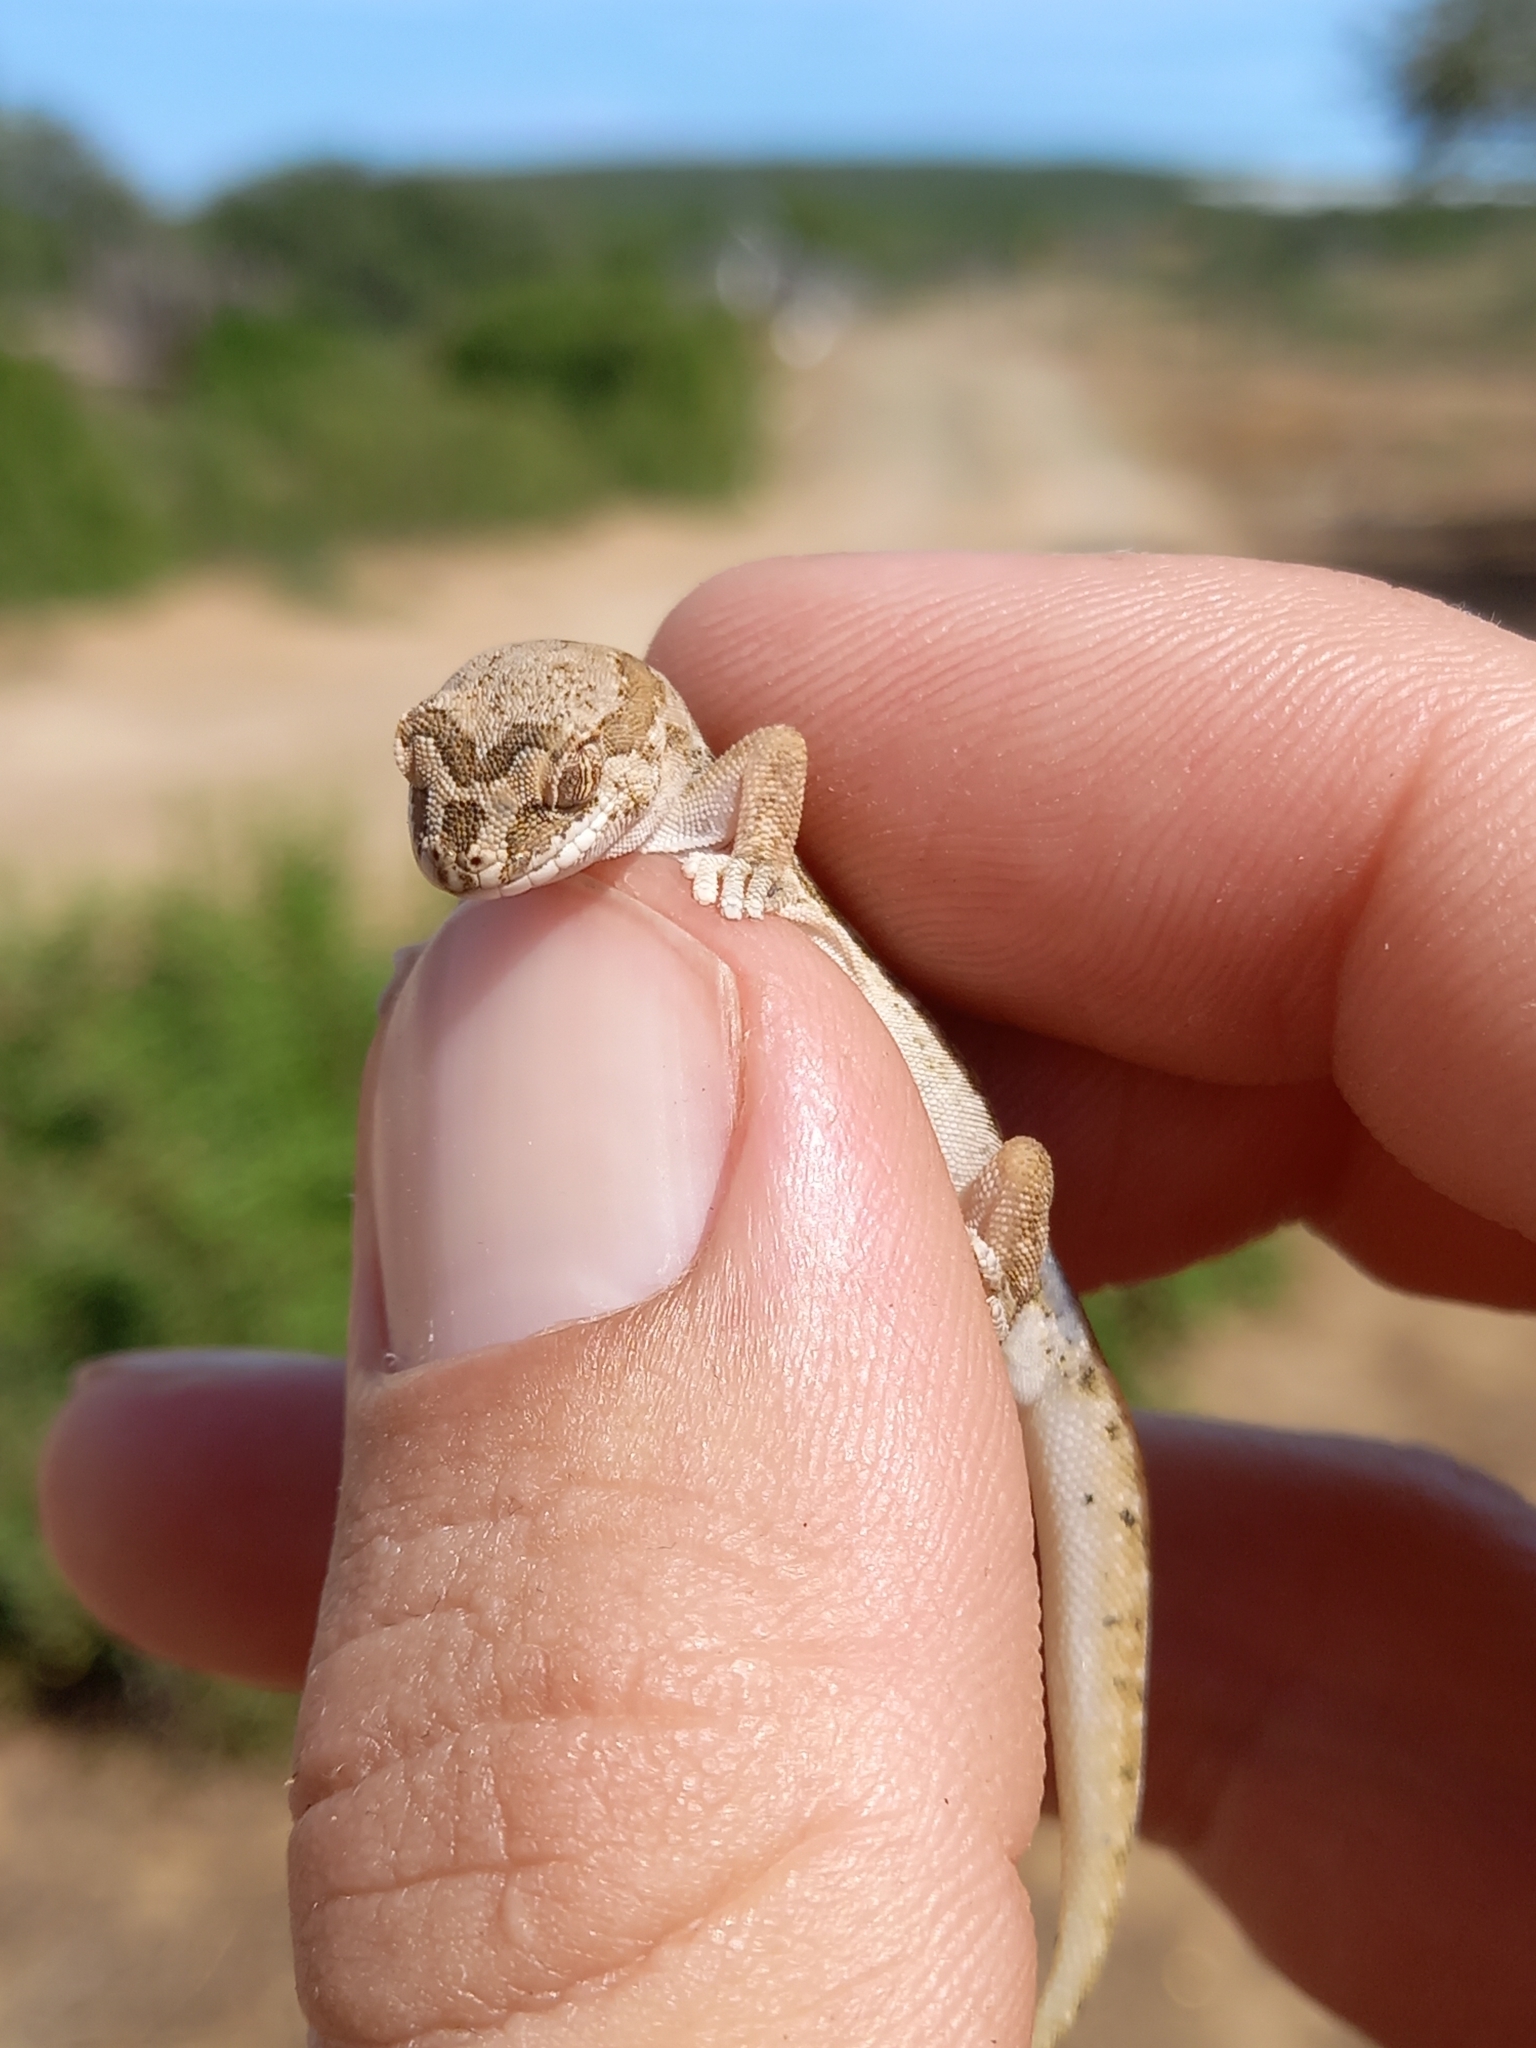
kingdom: Animalia
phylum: Chordata
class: Squamata
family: Gekkonidae
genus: Pachydactylus
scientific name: Pachydactylus mariquensis
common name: Common banded gecko
